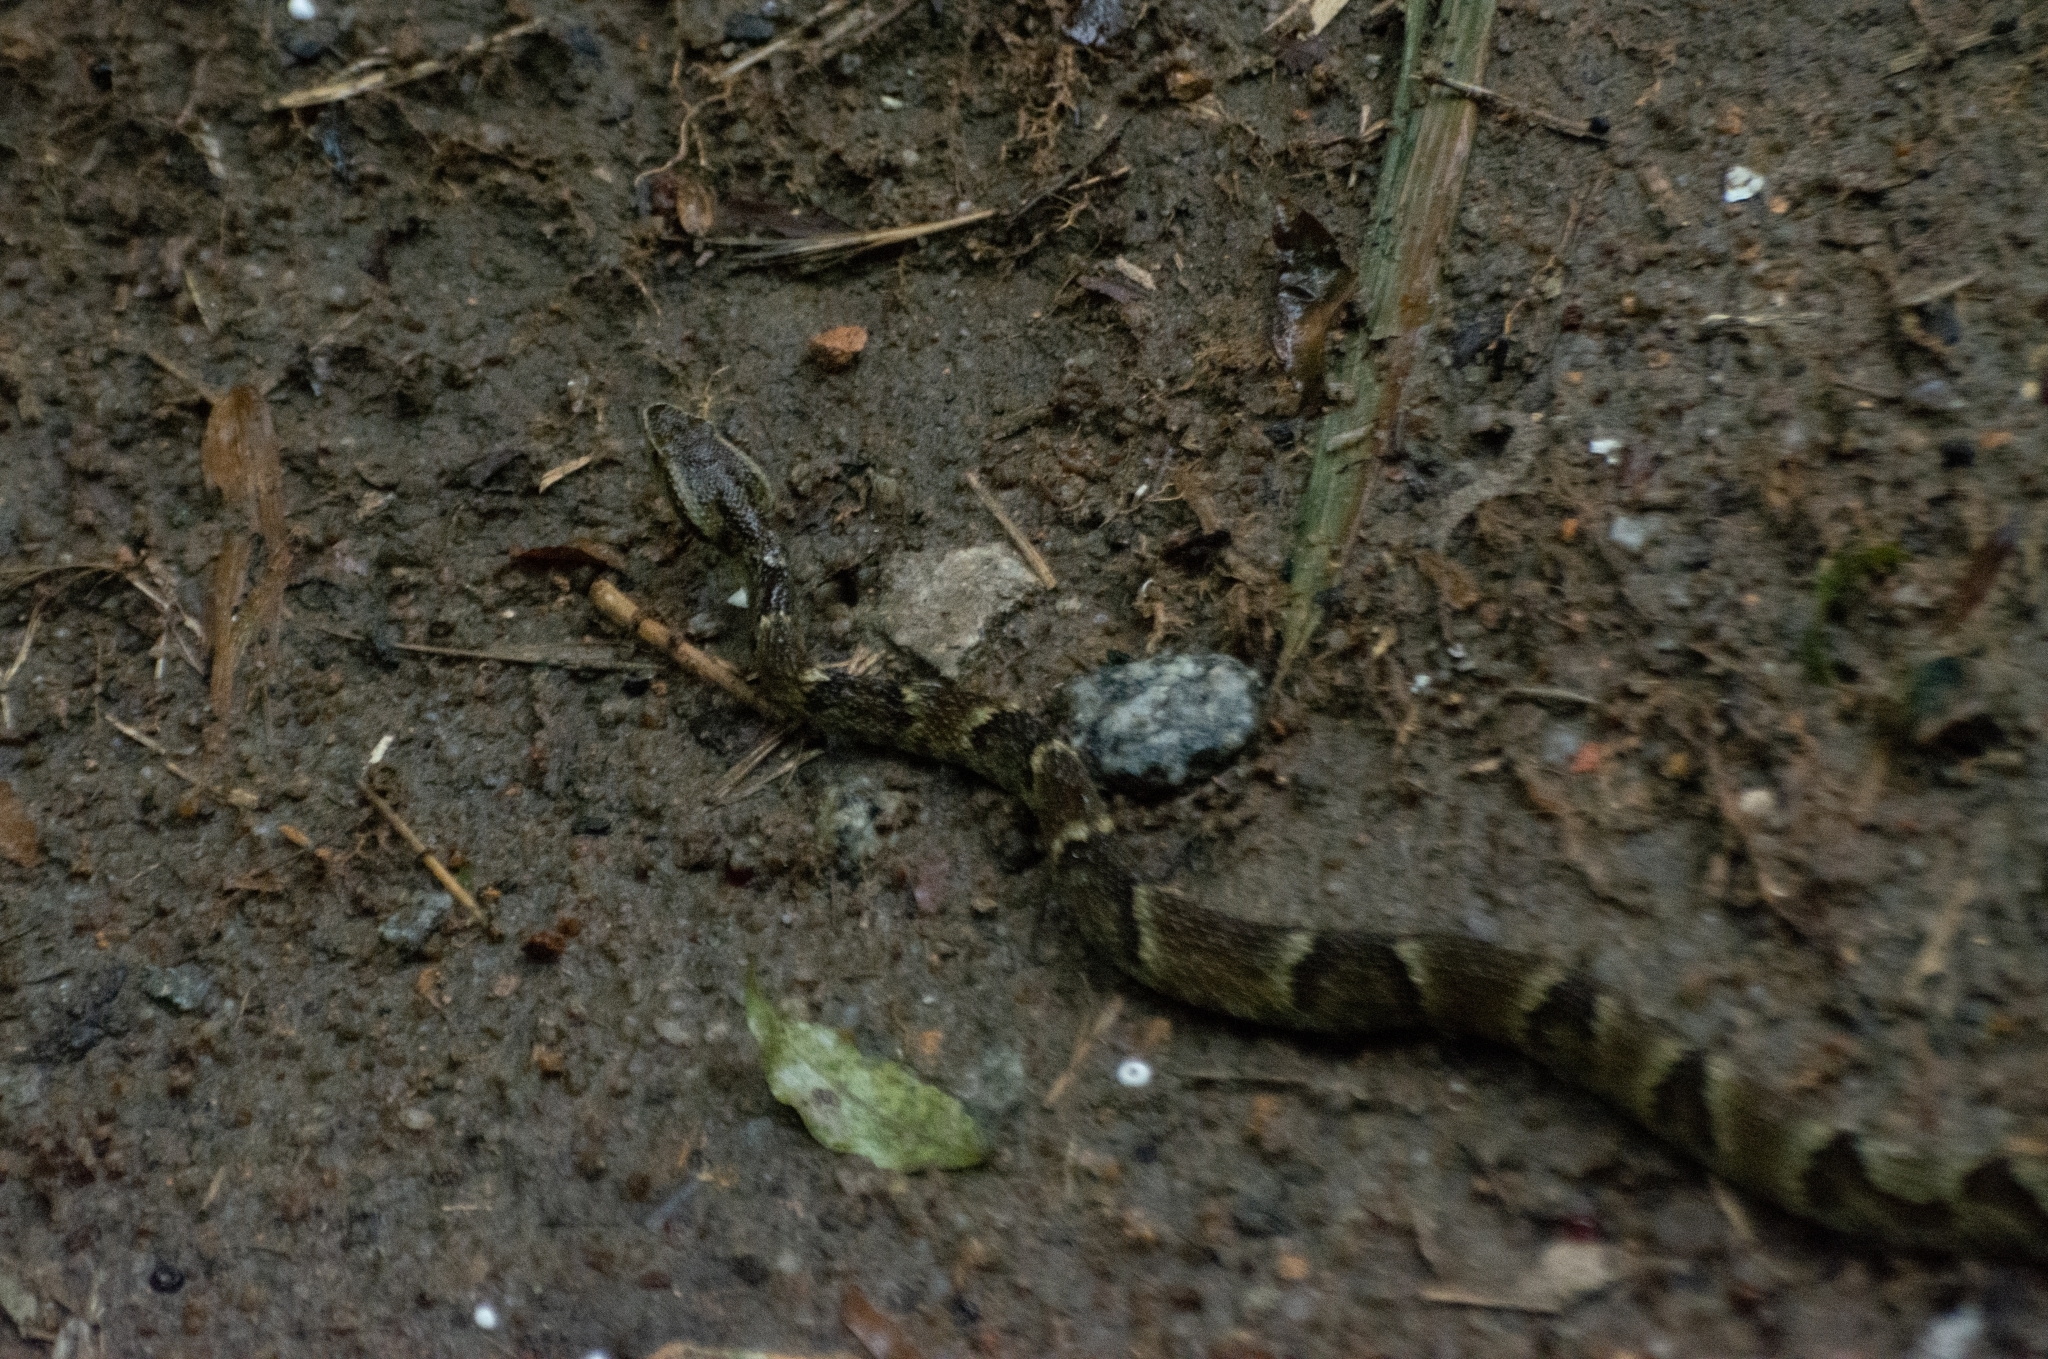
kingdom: Animalia
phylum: Chordata
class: Squamata
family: Viperidae
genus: Bothrops
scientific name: Bothrops jararaca
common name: Jararaca
